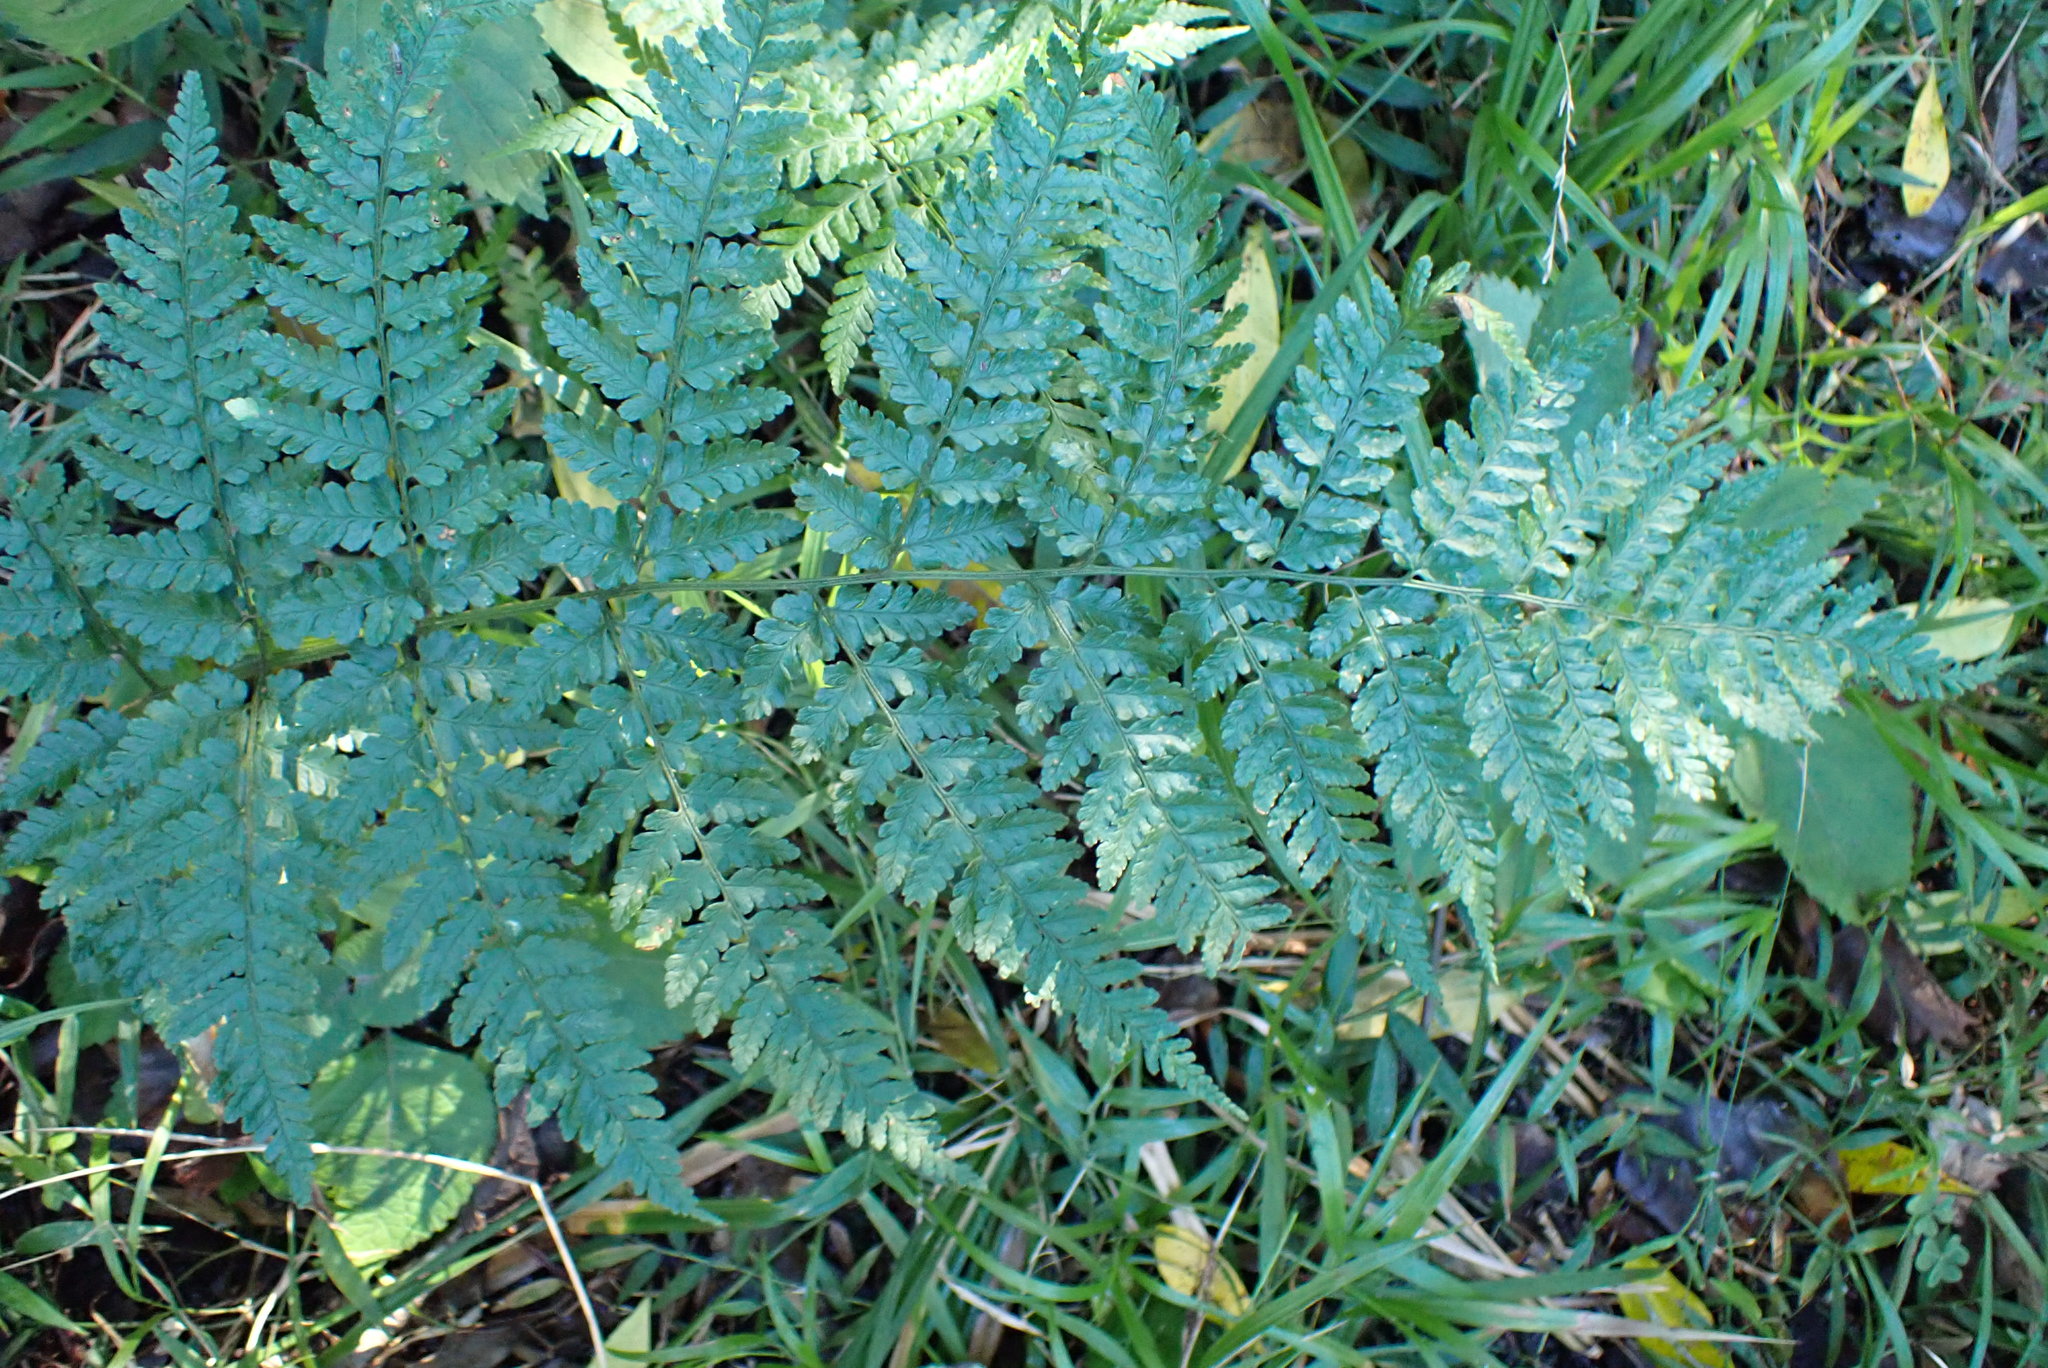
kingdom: Plantae
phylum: Tracheophyta
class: Polypodiopsida
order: Polypodiales
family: Dryopteridaceae
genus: Dryopteris
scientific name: Dryopteris inaequalis
